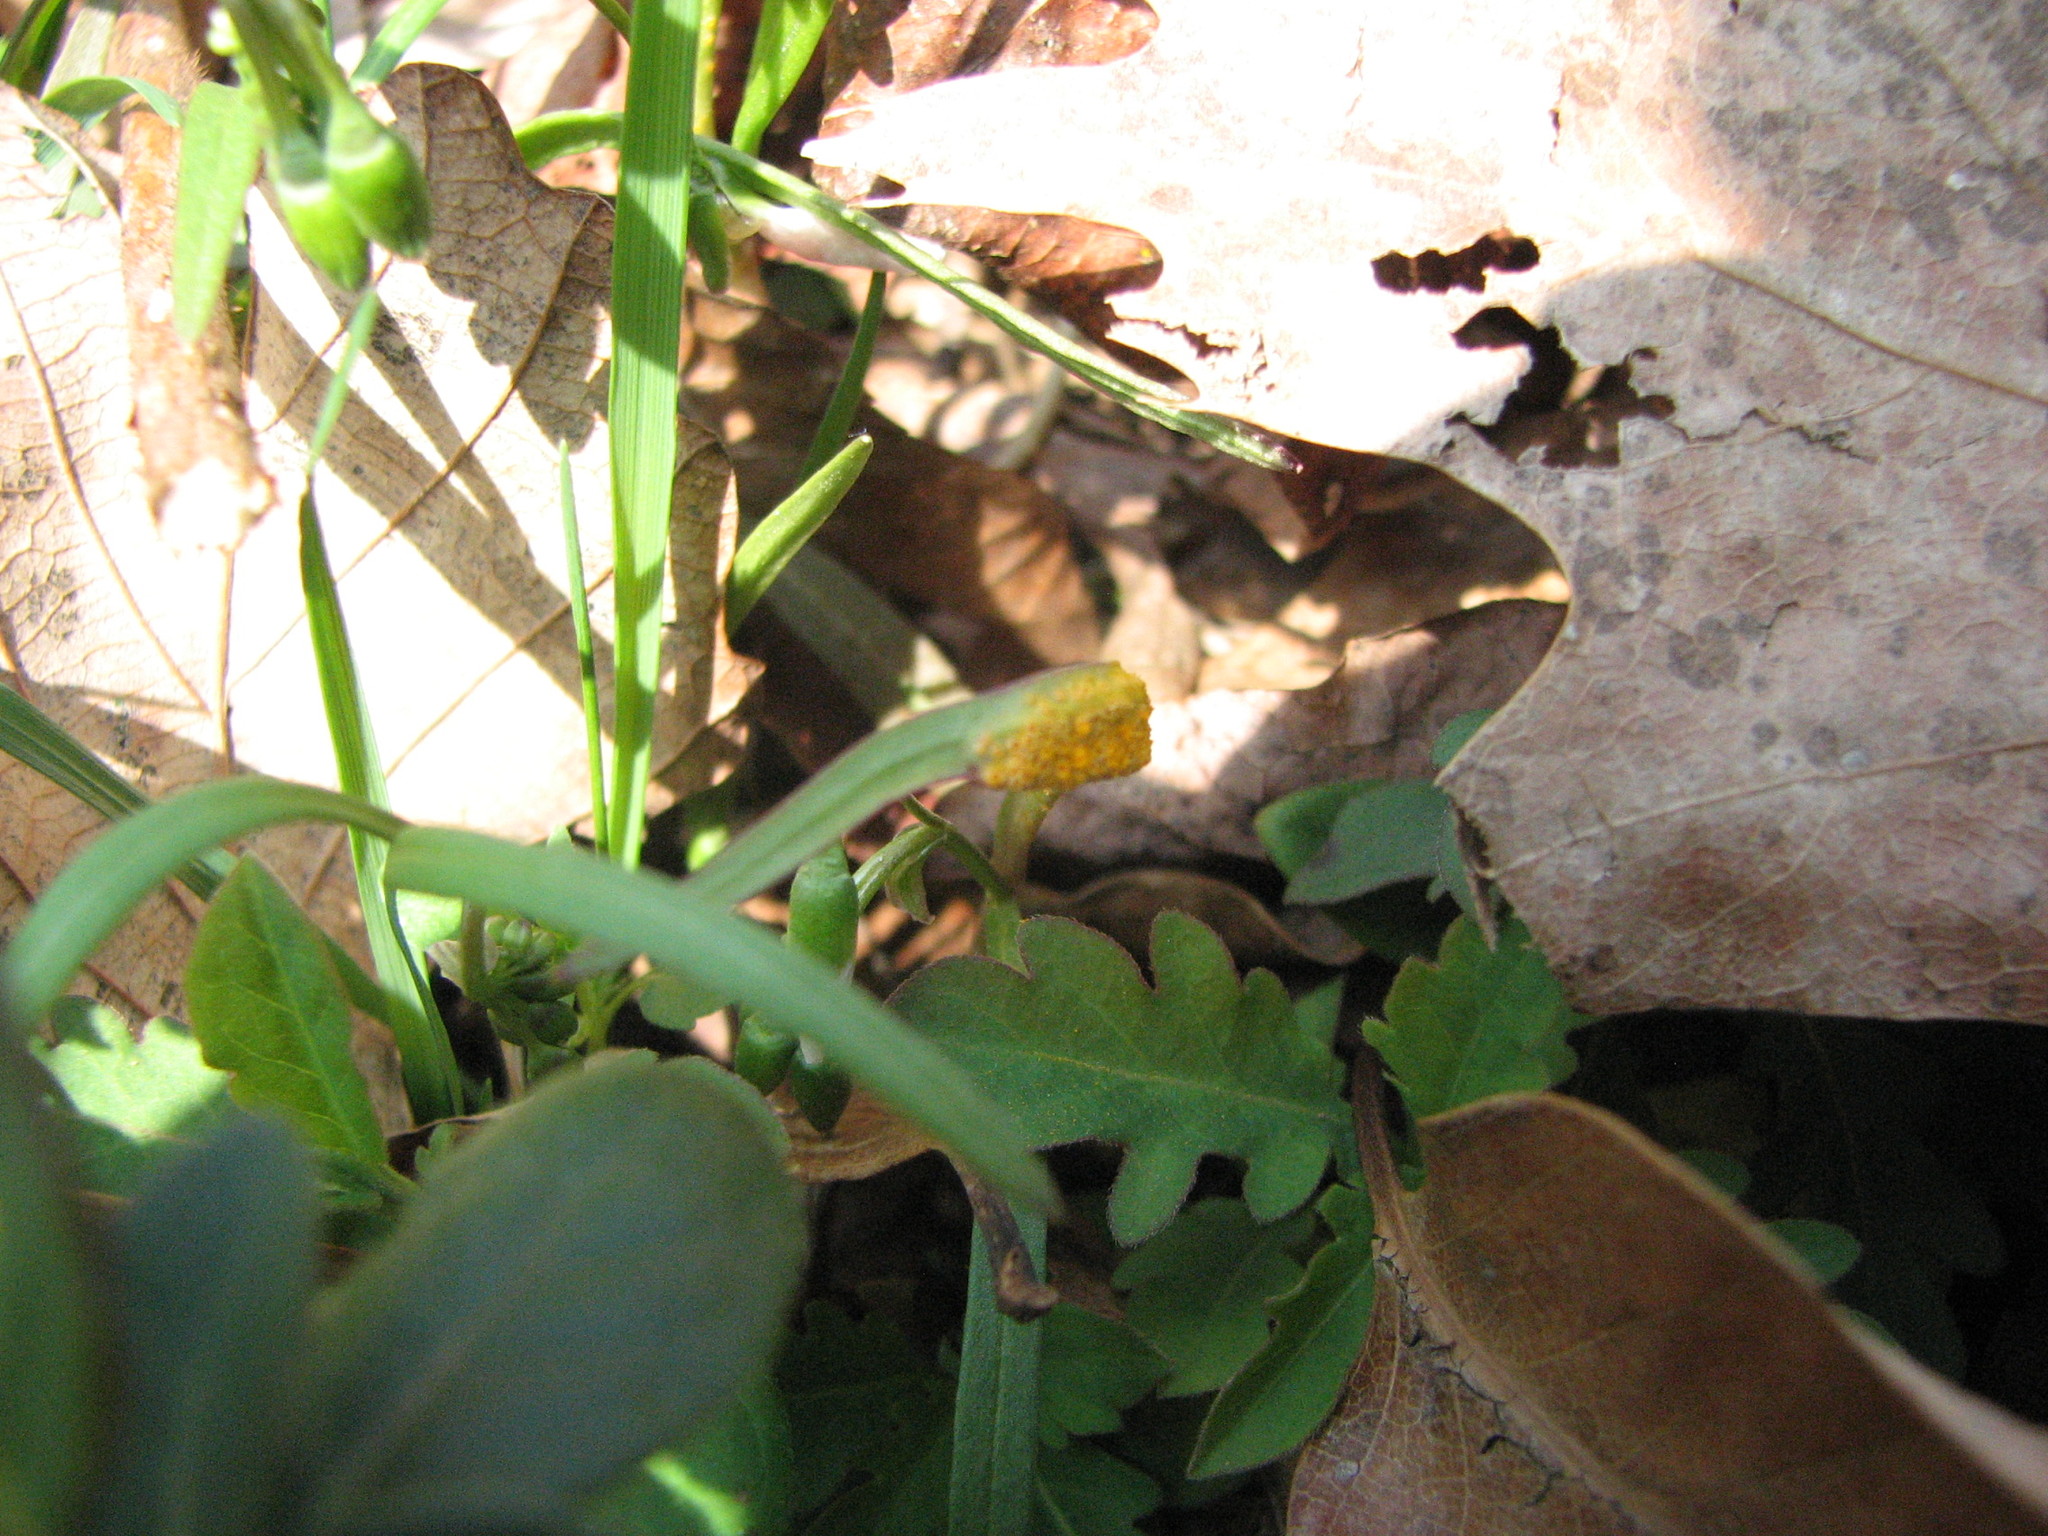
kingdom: Fungi
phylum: Basidiomycota
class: Pucciniomycetes
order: Pucciniales
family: Pucciniaceae
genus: Puccinia
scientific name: Puccinia mariae-wilsoniae
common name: Spring beauty rust
